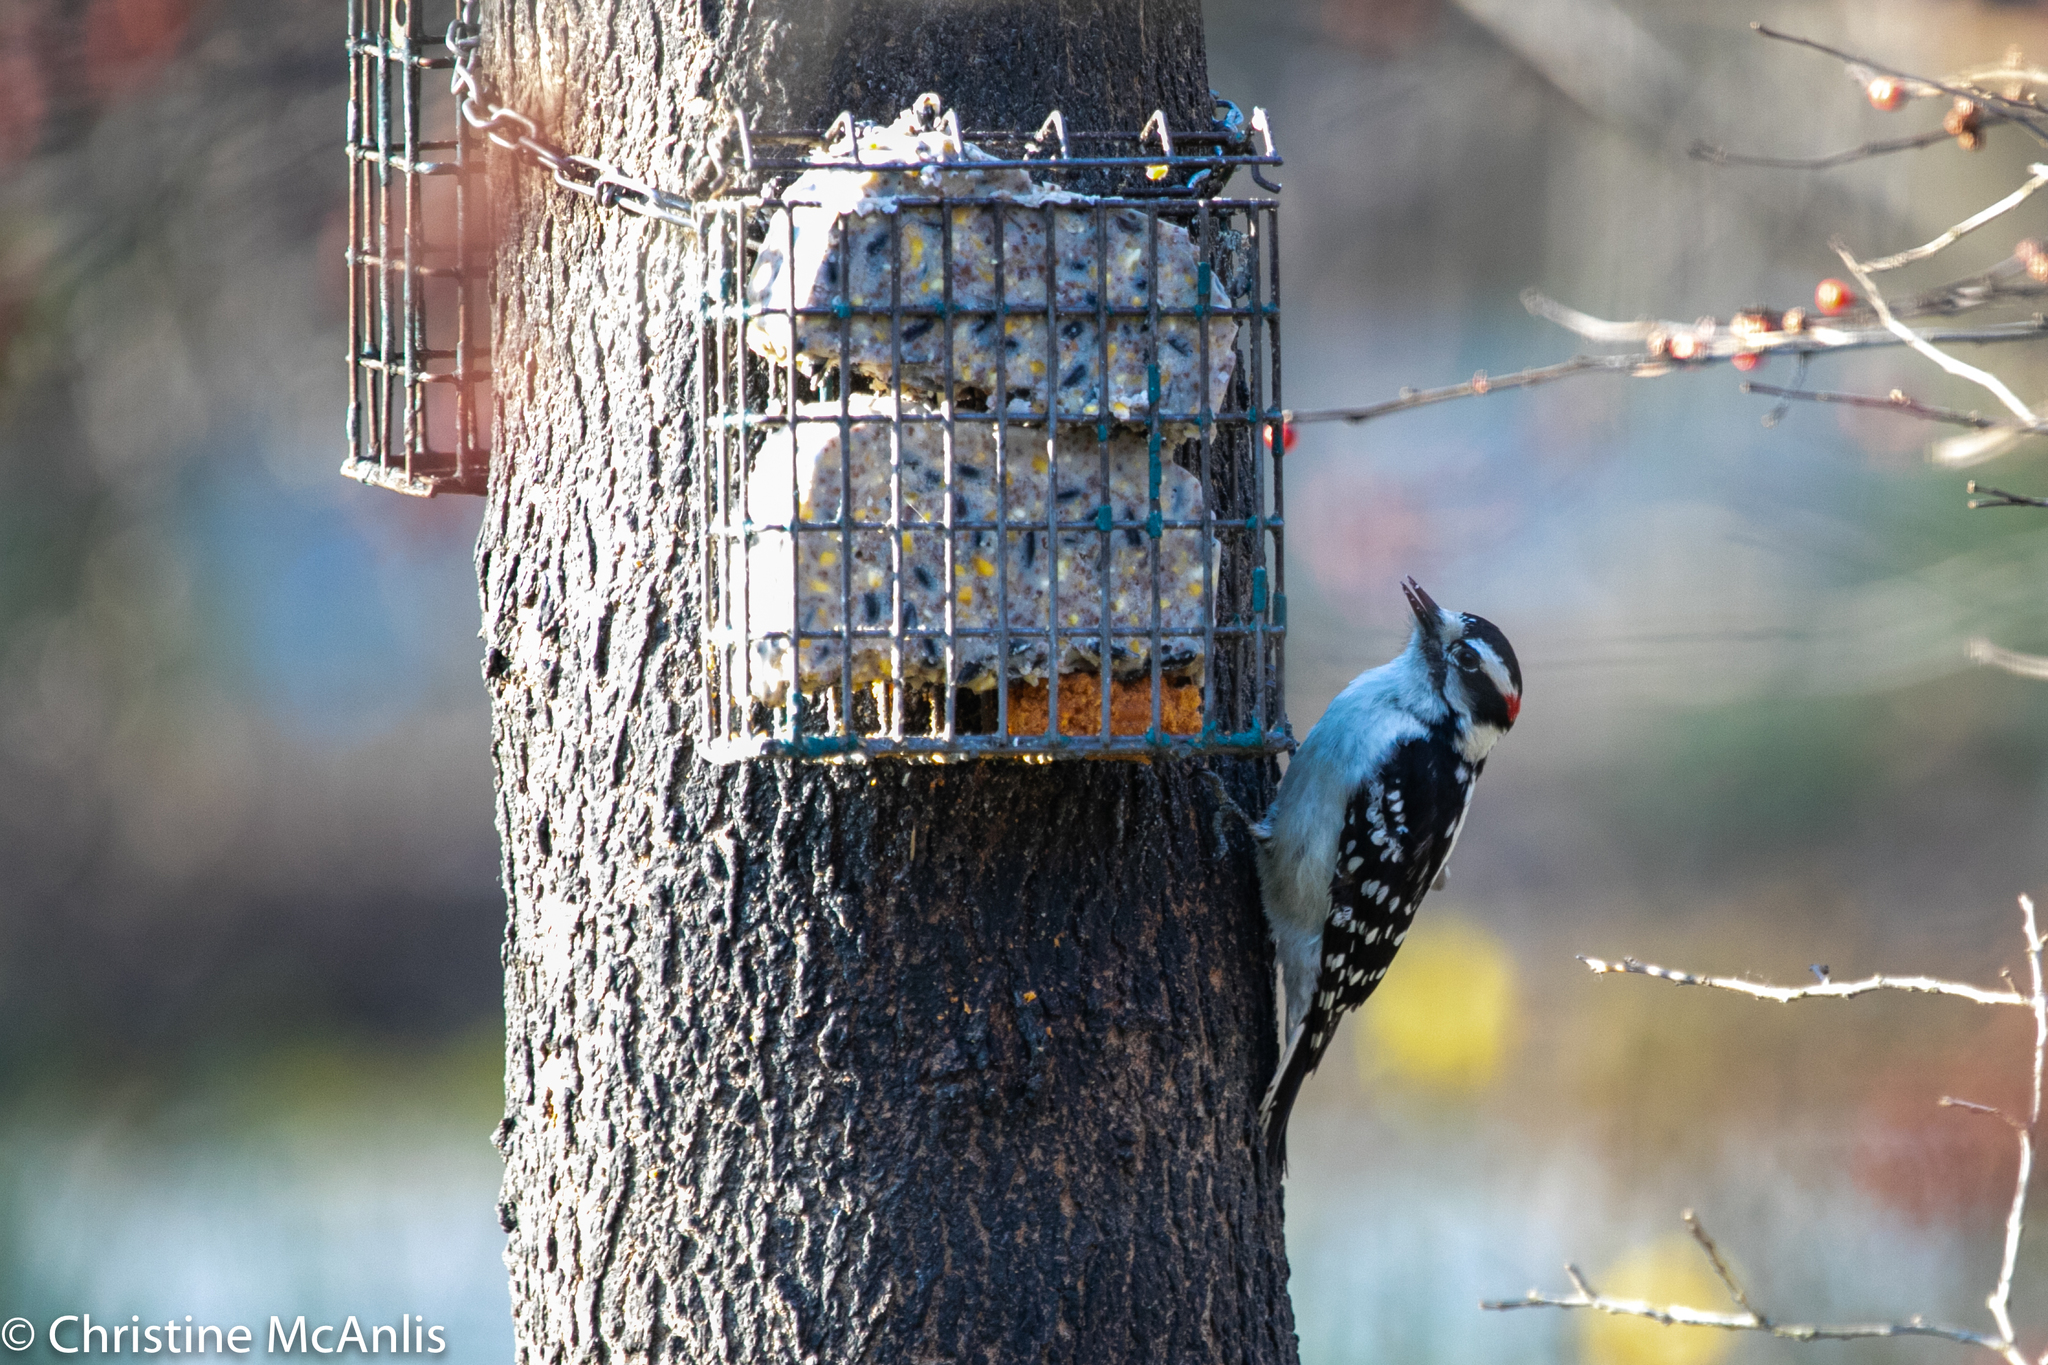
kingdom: Animalia
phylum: Chordata
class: Aves
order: Piciformes
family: Picidae
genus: Dryobates
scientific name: Dryobates pubescens
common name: Downy woodpecker
